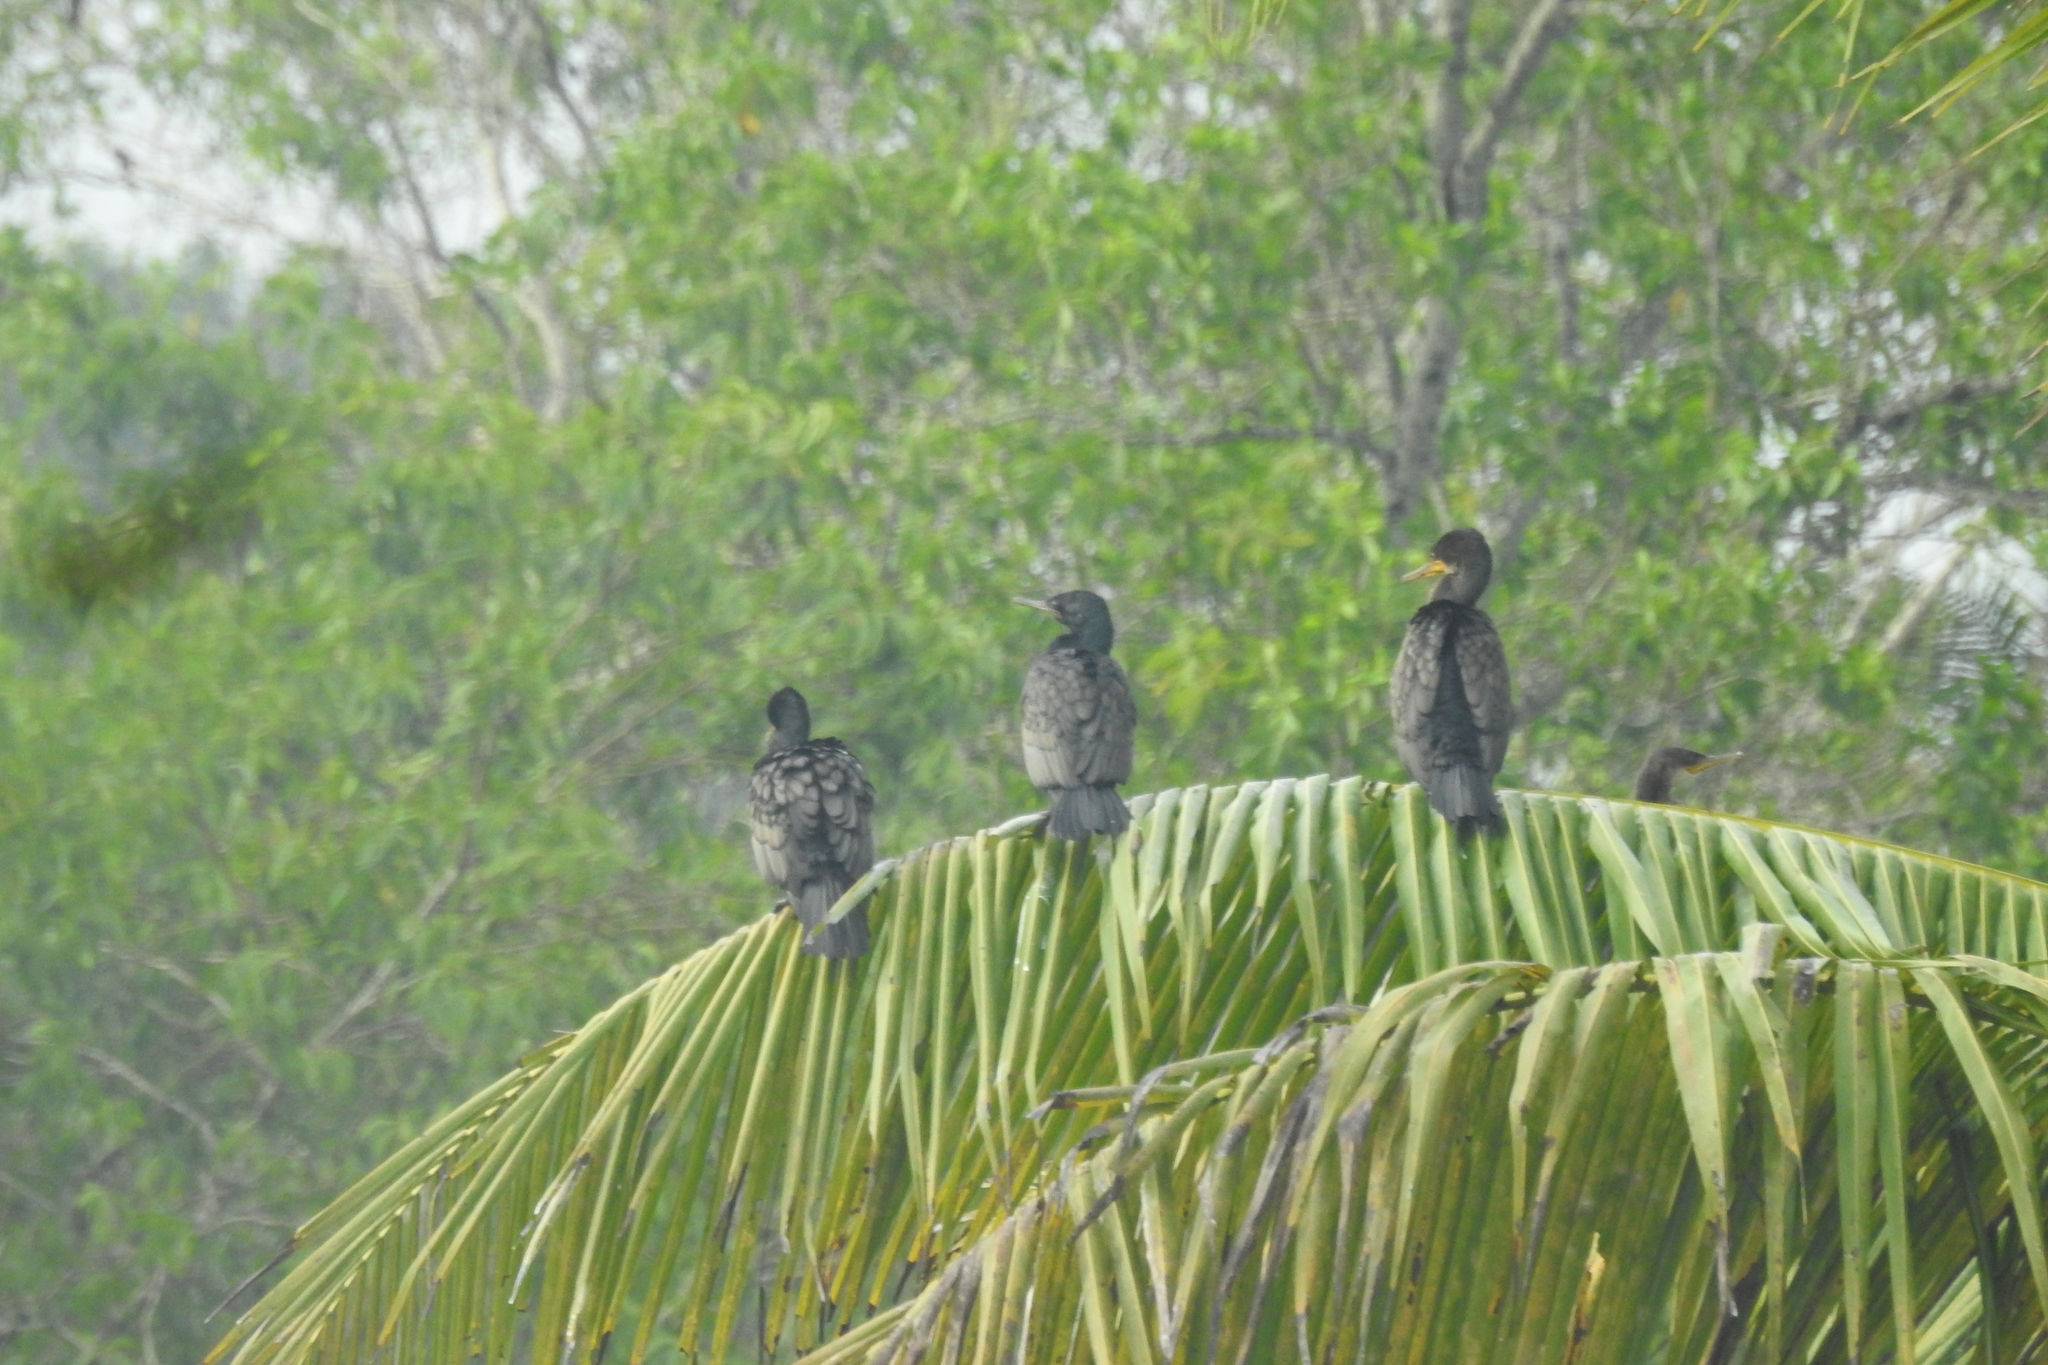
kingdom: Animalia
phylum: Chordata
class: Aves
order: Suliformes
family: Phalacrocoracidae
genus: Phalacrocorax
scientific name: Phalacrocorax fuscicollis
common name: Indian cormorant
